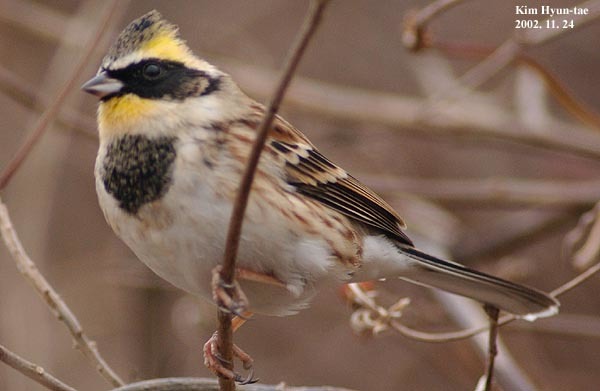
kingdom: Animalia
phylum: Chordata
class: Aves
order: Passeriformes
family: Emberizidae
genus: Emberiza
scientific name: Emberiza elegans
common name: Yellow-throated bunting
